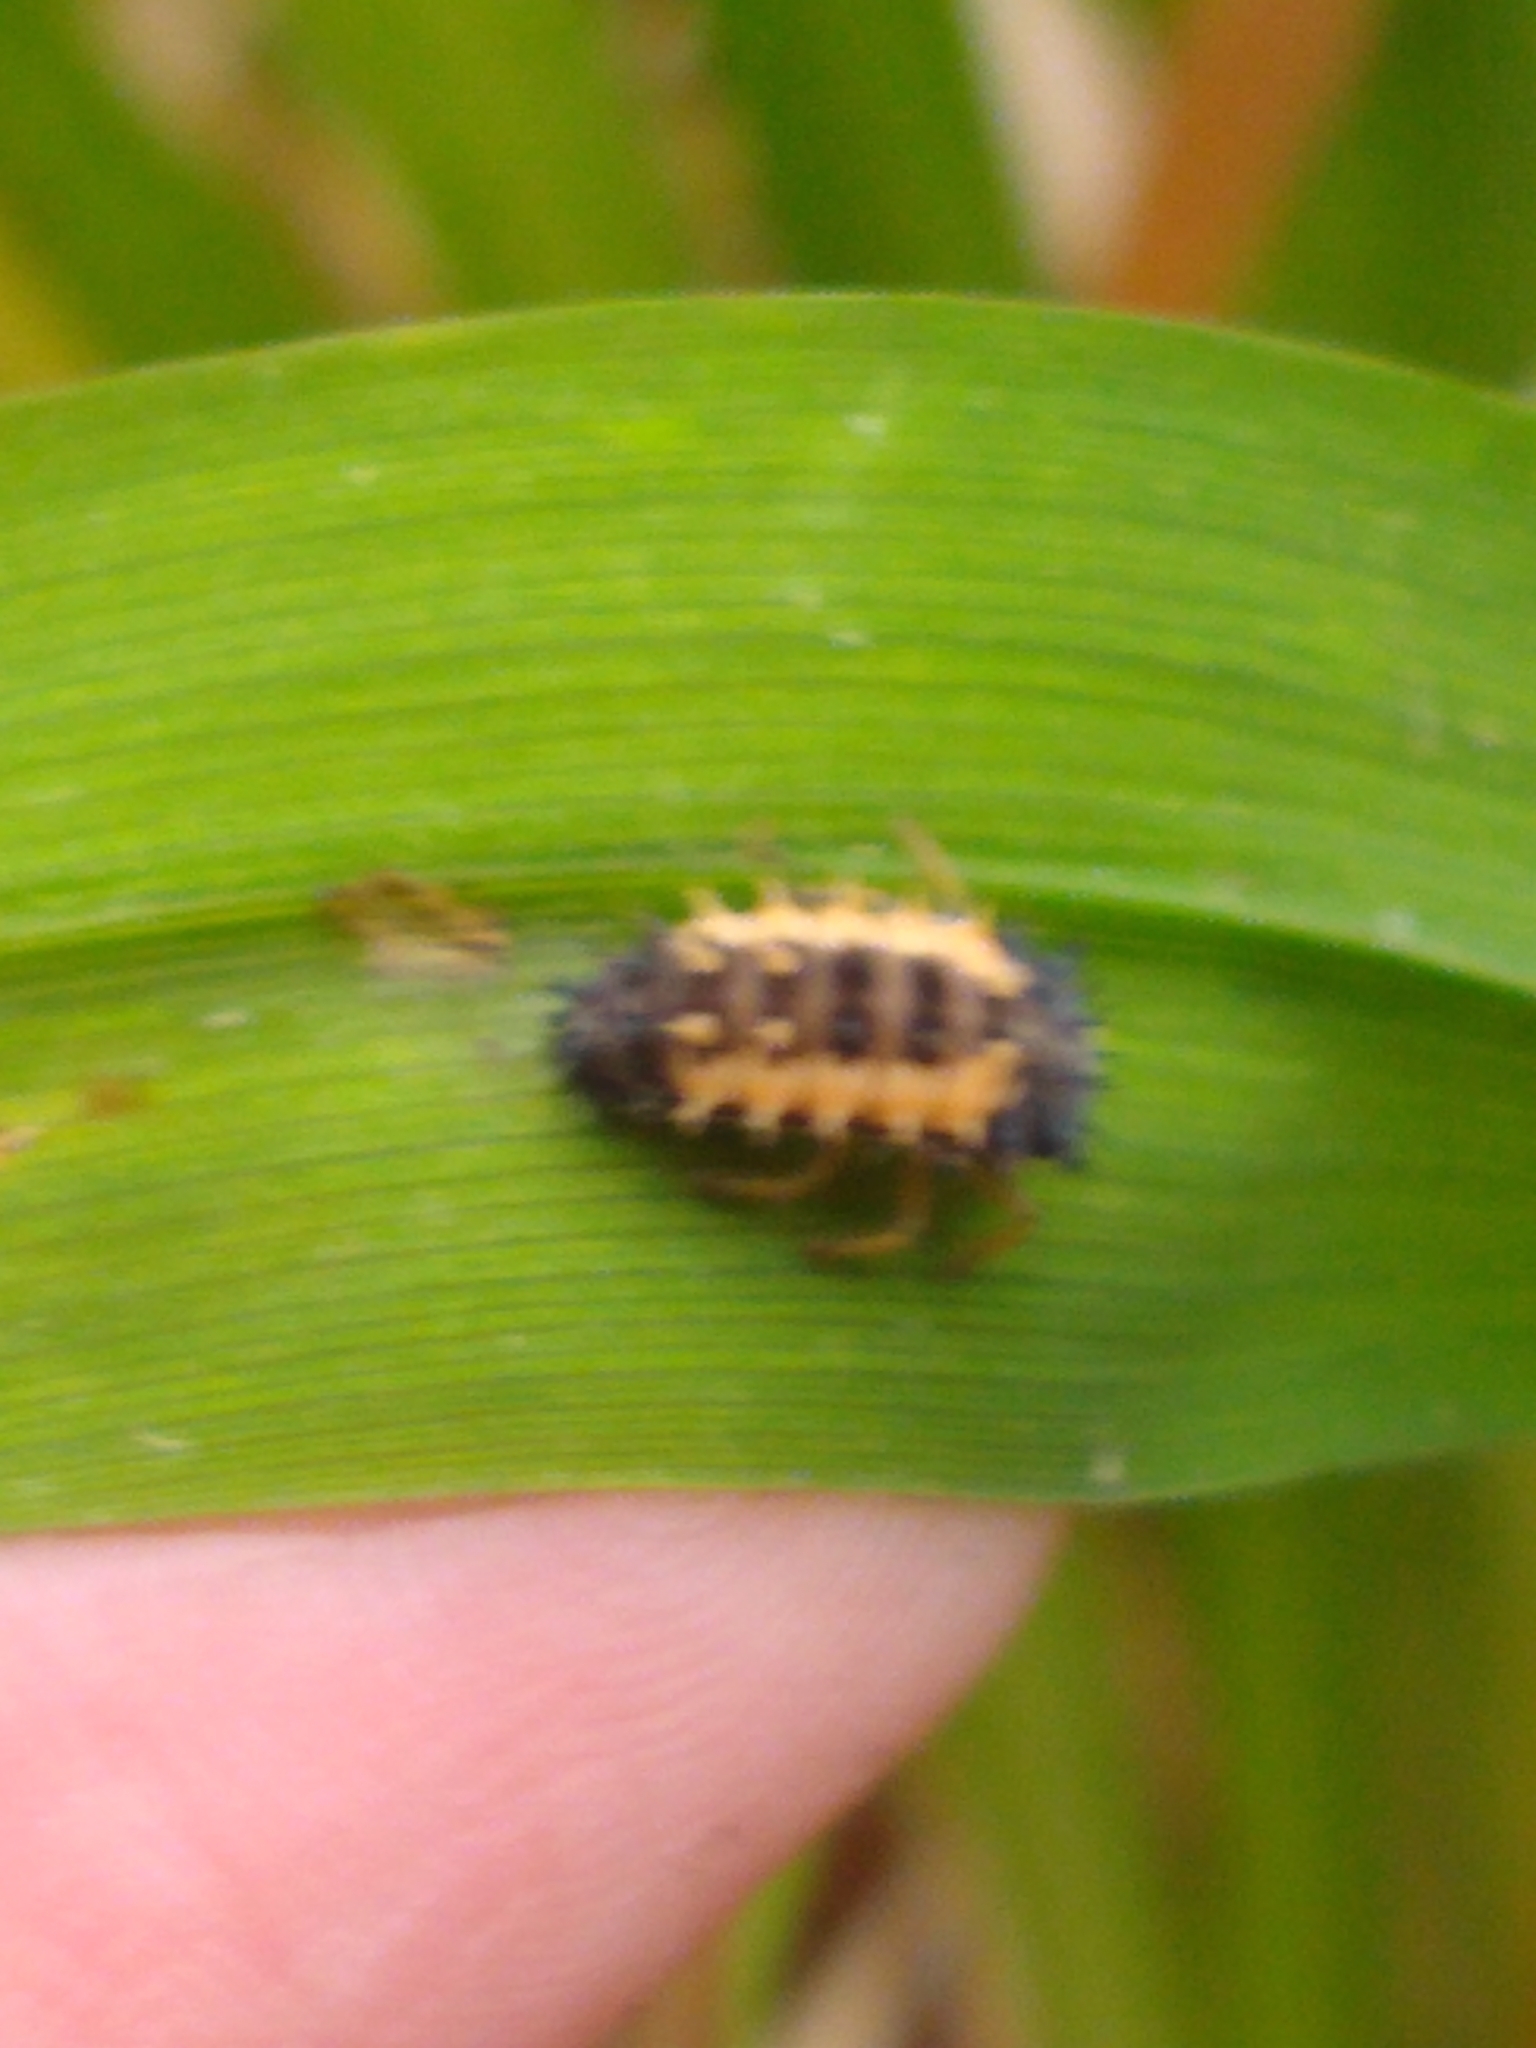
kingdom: Animalia
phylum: Arthropoda
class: Insecta
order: Coleoptera
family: Coccinellidae
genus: Harmonia
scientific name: Harmonia axyridis
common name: Harlequin ladybird
